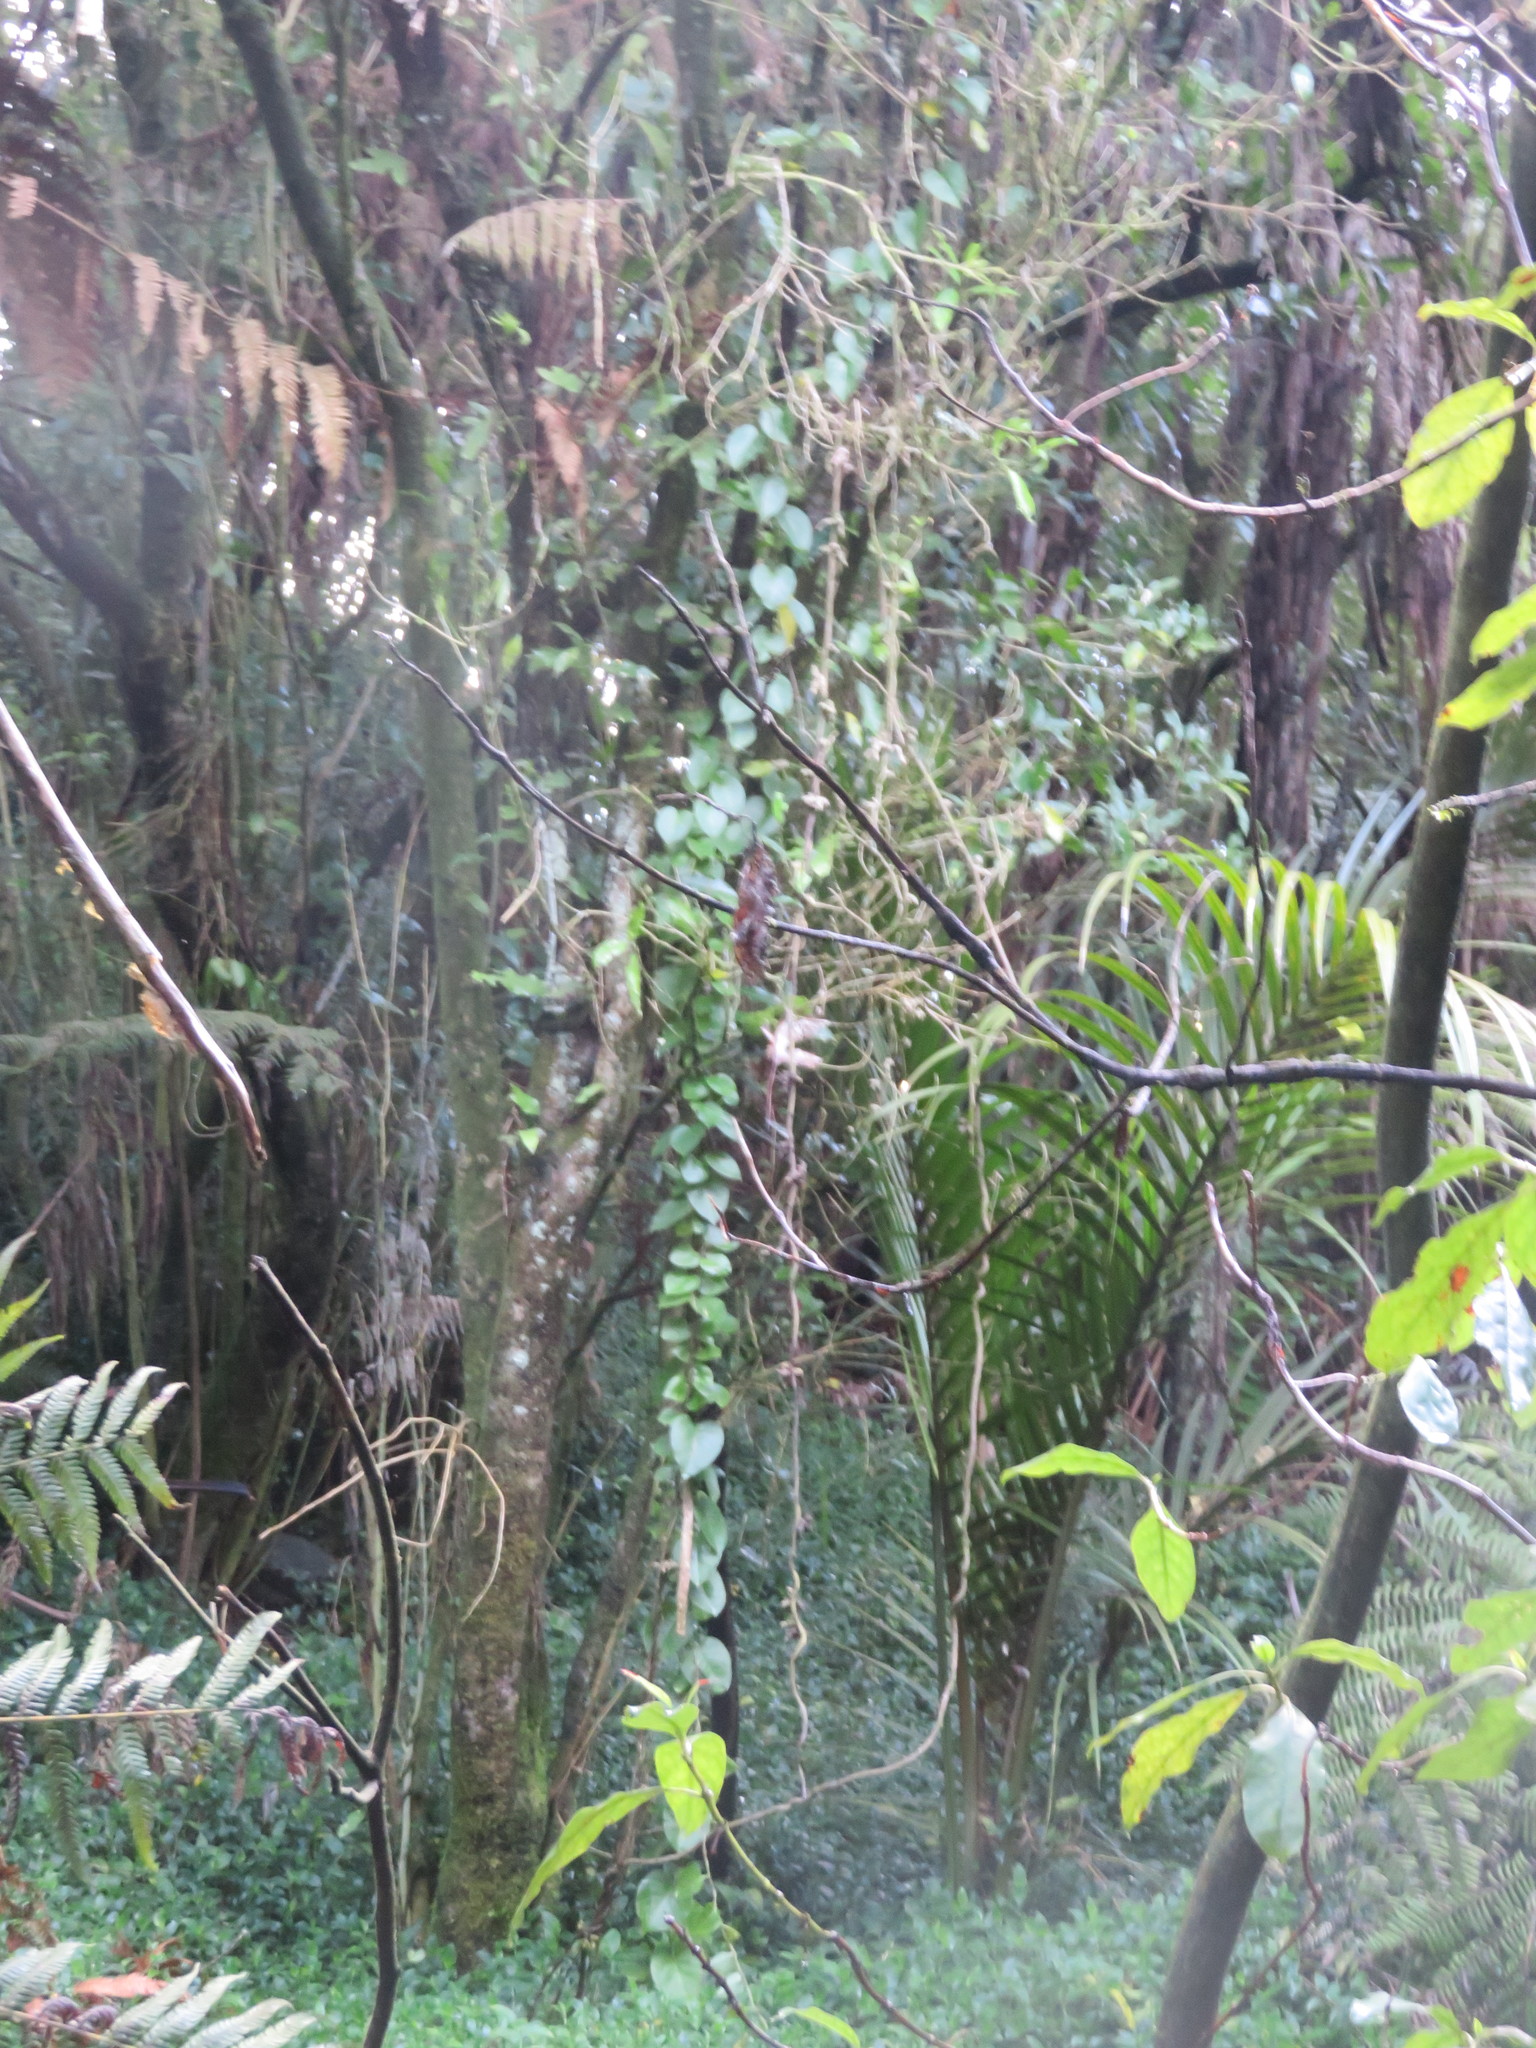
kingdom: Plantae
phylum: Tracheophyta
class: Liliopsida
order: Arecales
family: Arecaceae
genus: Rhopalostylis
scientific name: Rhopalostylis sapida
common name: Feather-duster palm
